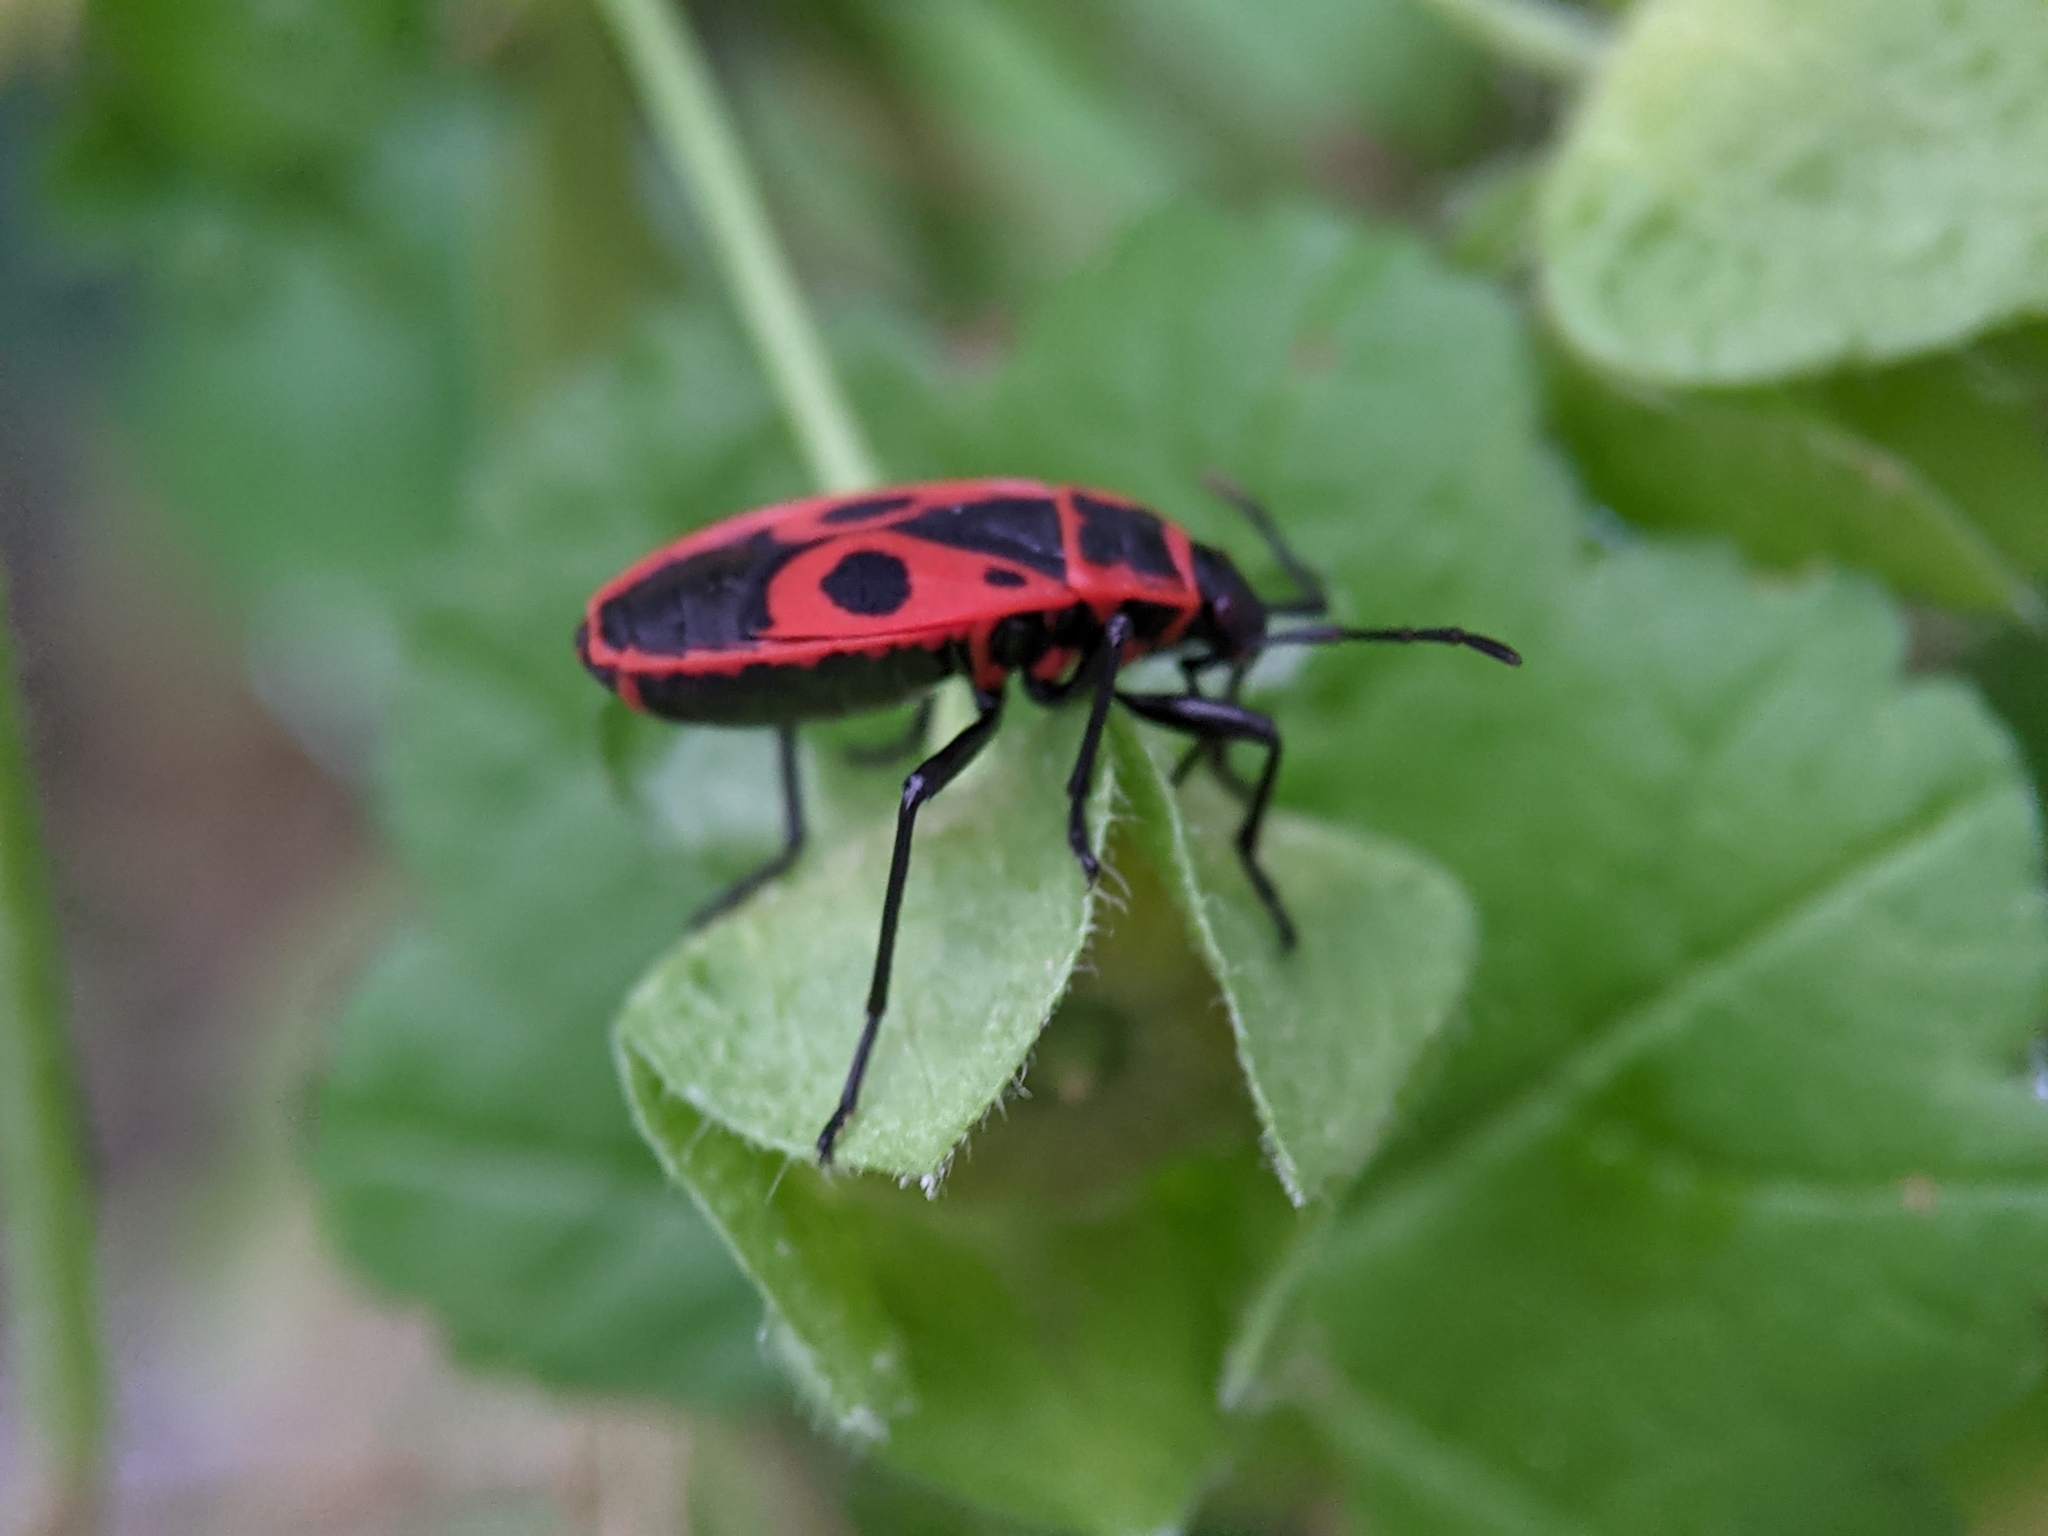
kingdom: Animalia
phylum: Arthropoda
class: Insecta
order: Hemiptera
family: Pyrrhocoridae
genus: Pyrrhocoris
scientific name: Pyrrhocoris apterus
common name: Firebug
